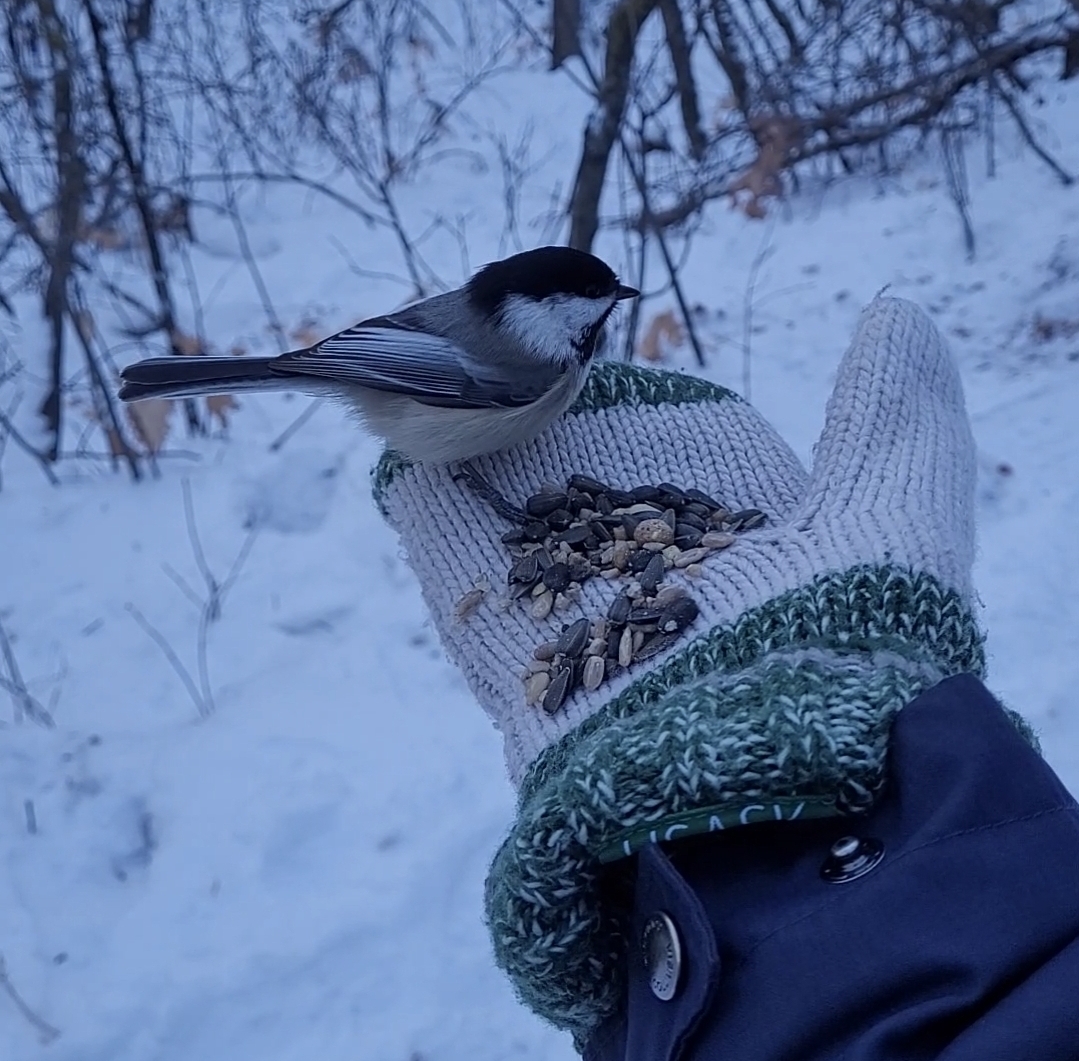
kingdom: Animalia
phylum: Chordata
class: Aves
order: Passeriformes
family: Paridae
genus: Poecile
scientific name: Poecile atricapillus
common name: Black-capped chickadee
